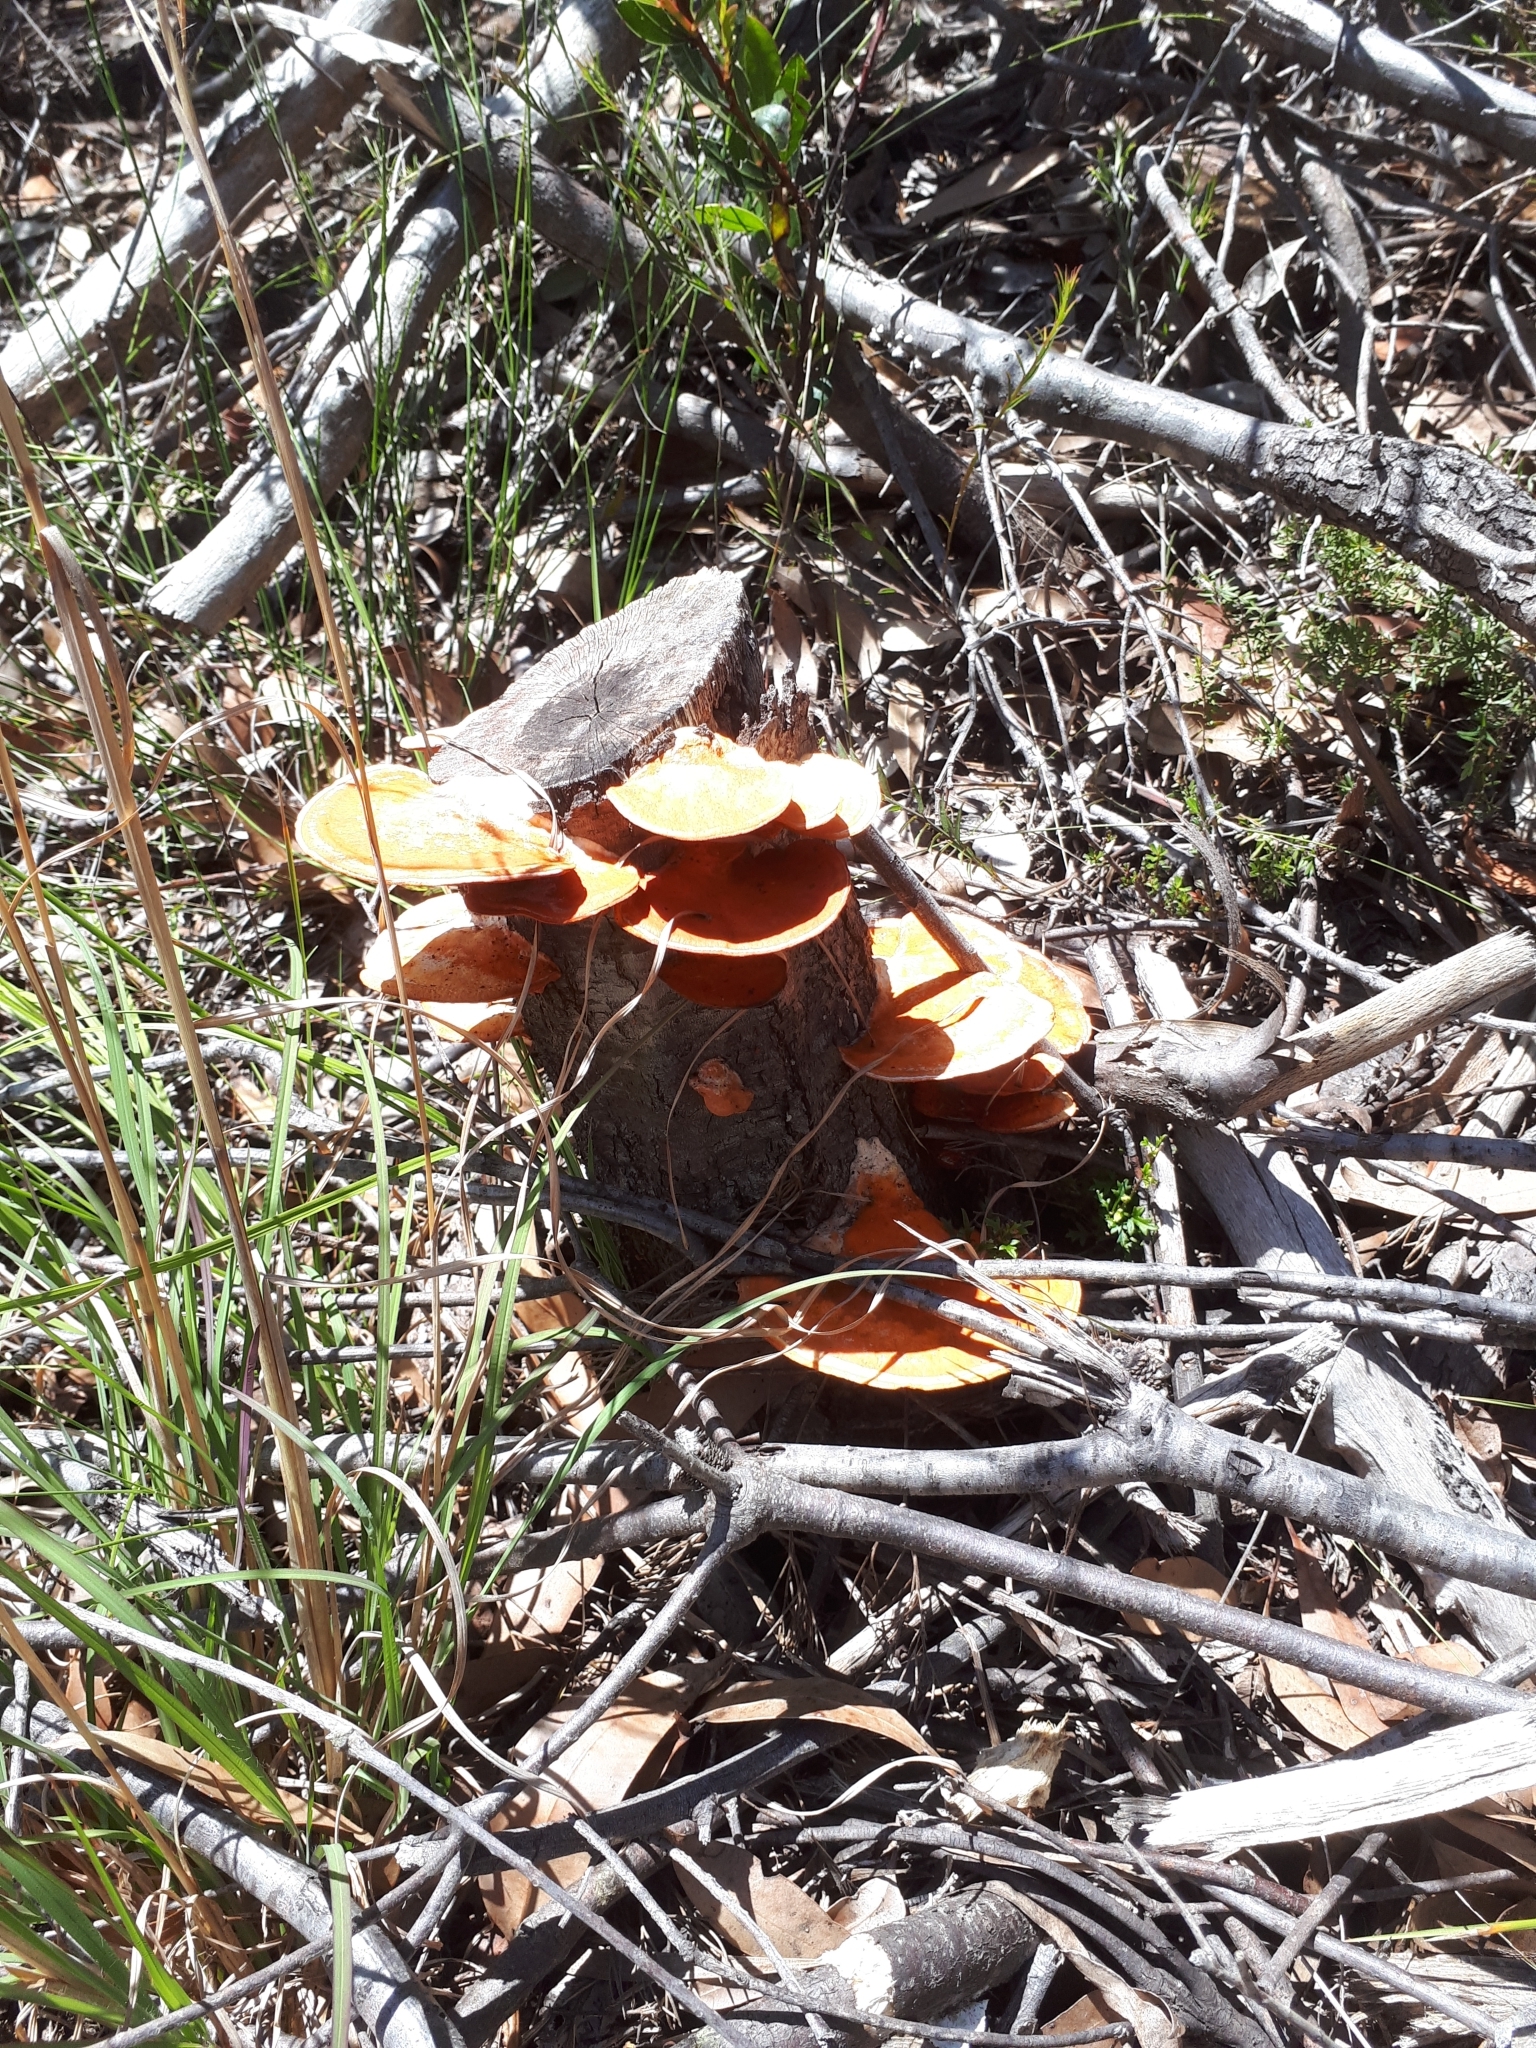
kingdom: Fungi
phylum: Basidiomycota
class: Agaricomycetes
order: Polyporales
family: Polyporaceae
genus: Trametes
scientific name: Trametes coccinea
